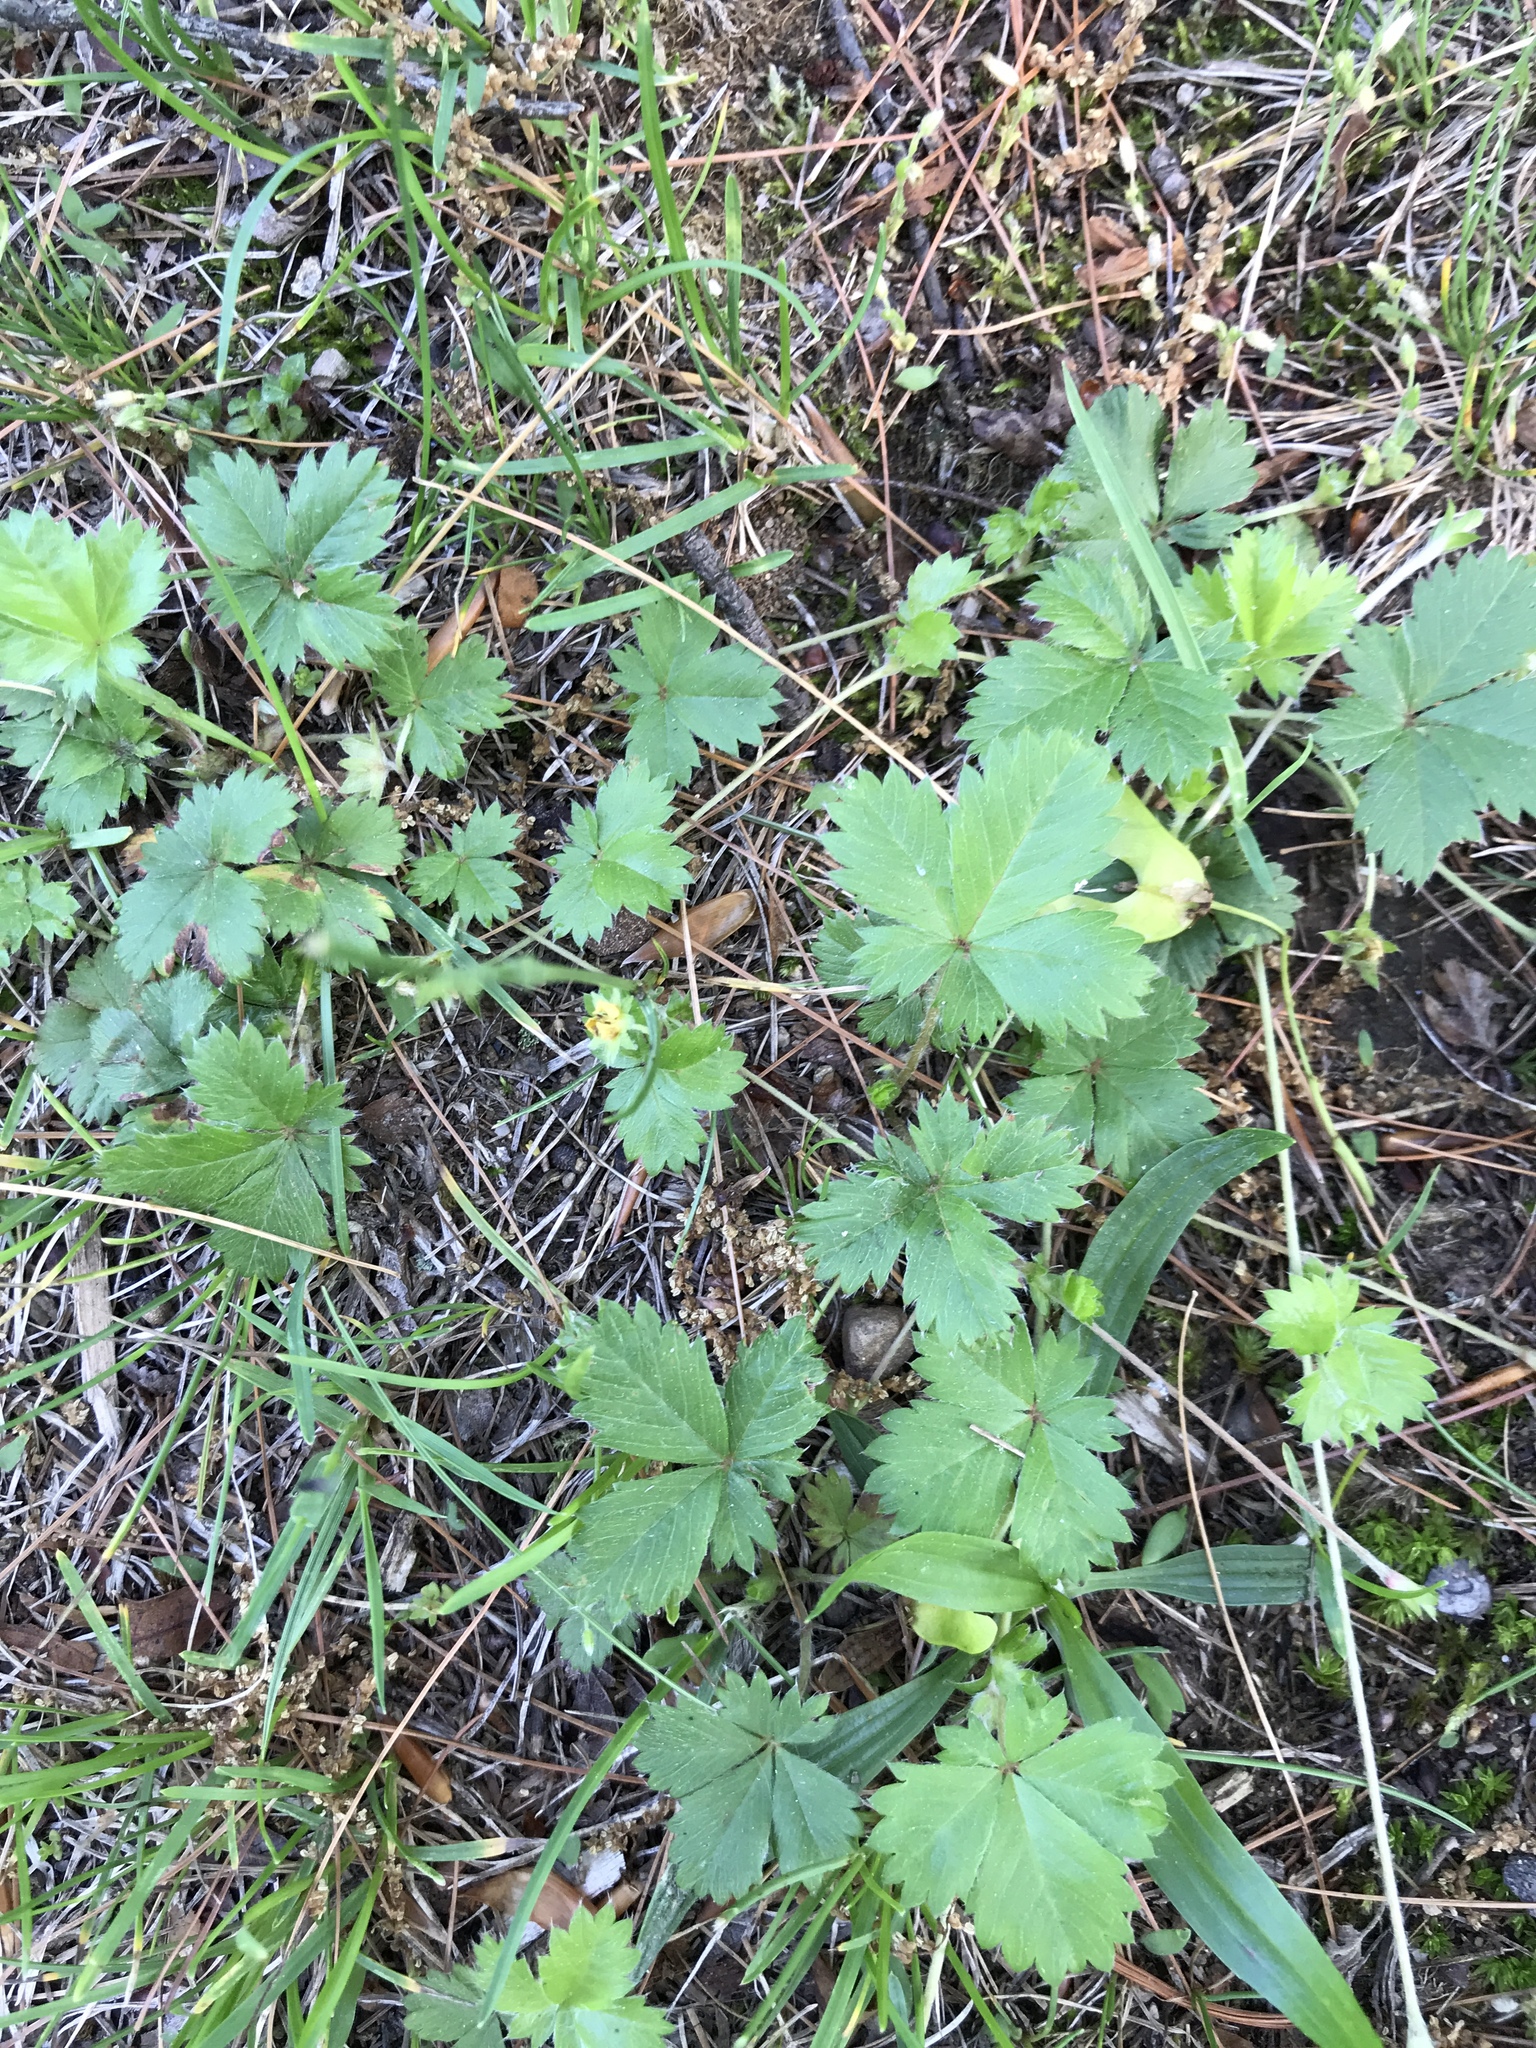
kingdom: Plantae
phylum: Tracheophyta
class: Magnoliopsida
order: Rosales
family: Rosaceae
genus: Potentilla
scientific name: Potentilla canadensis
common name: Canada cinquefoil
